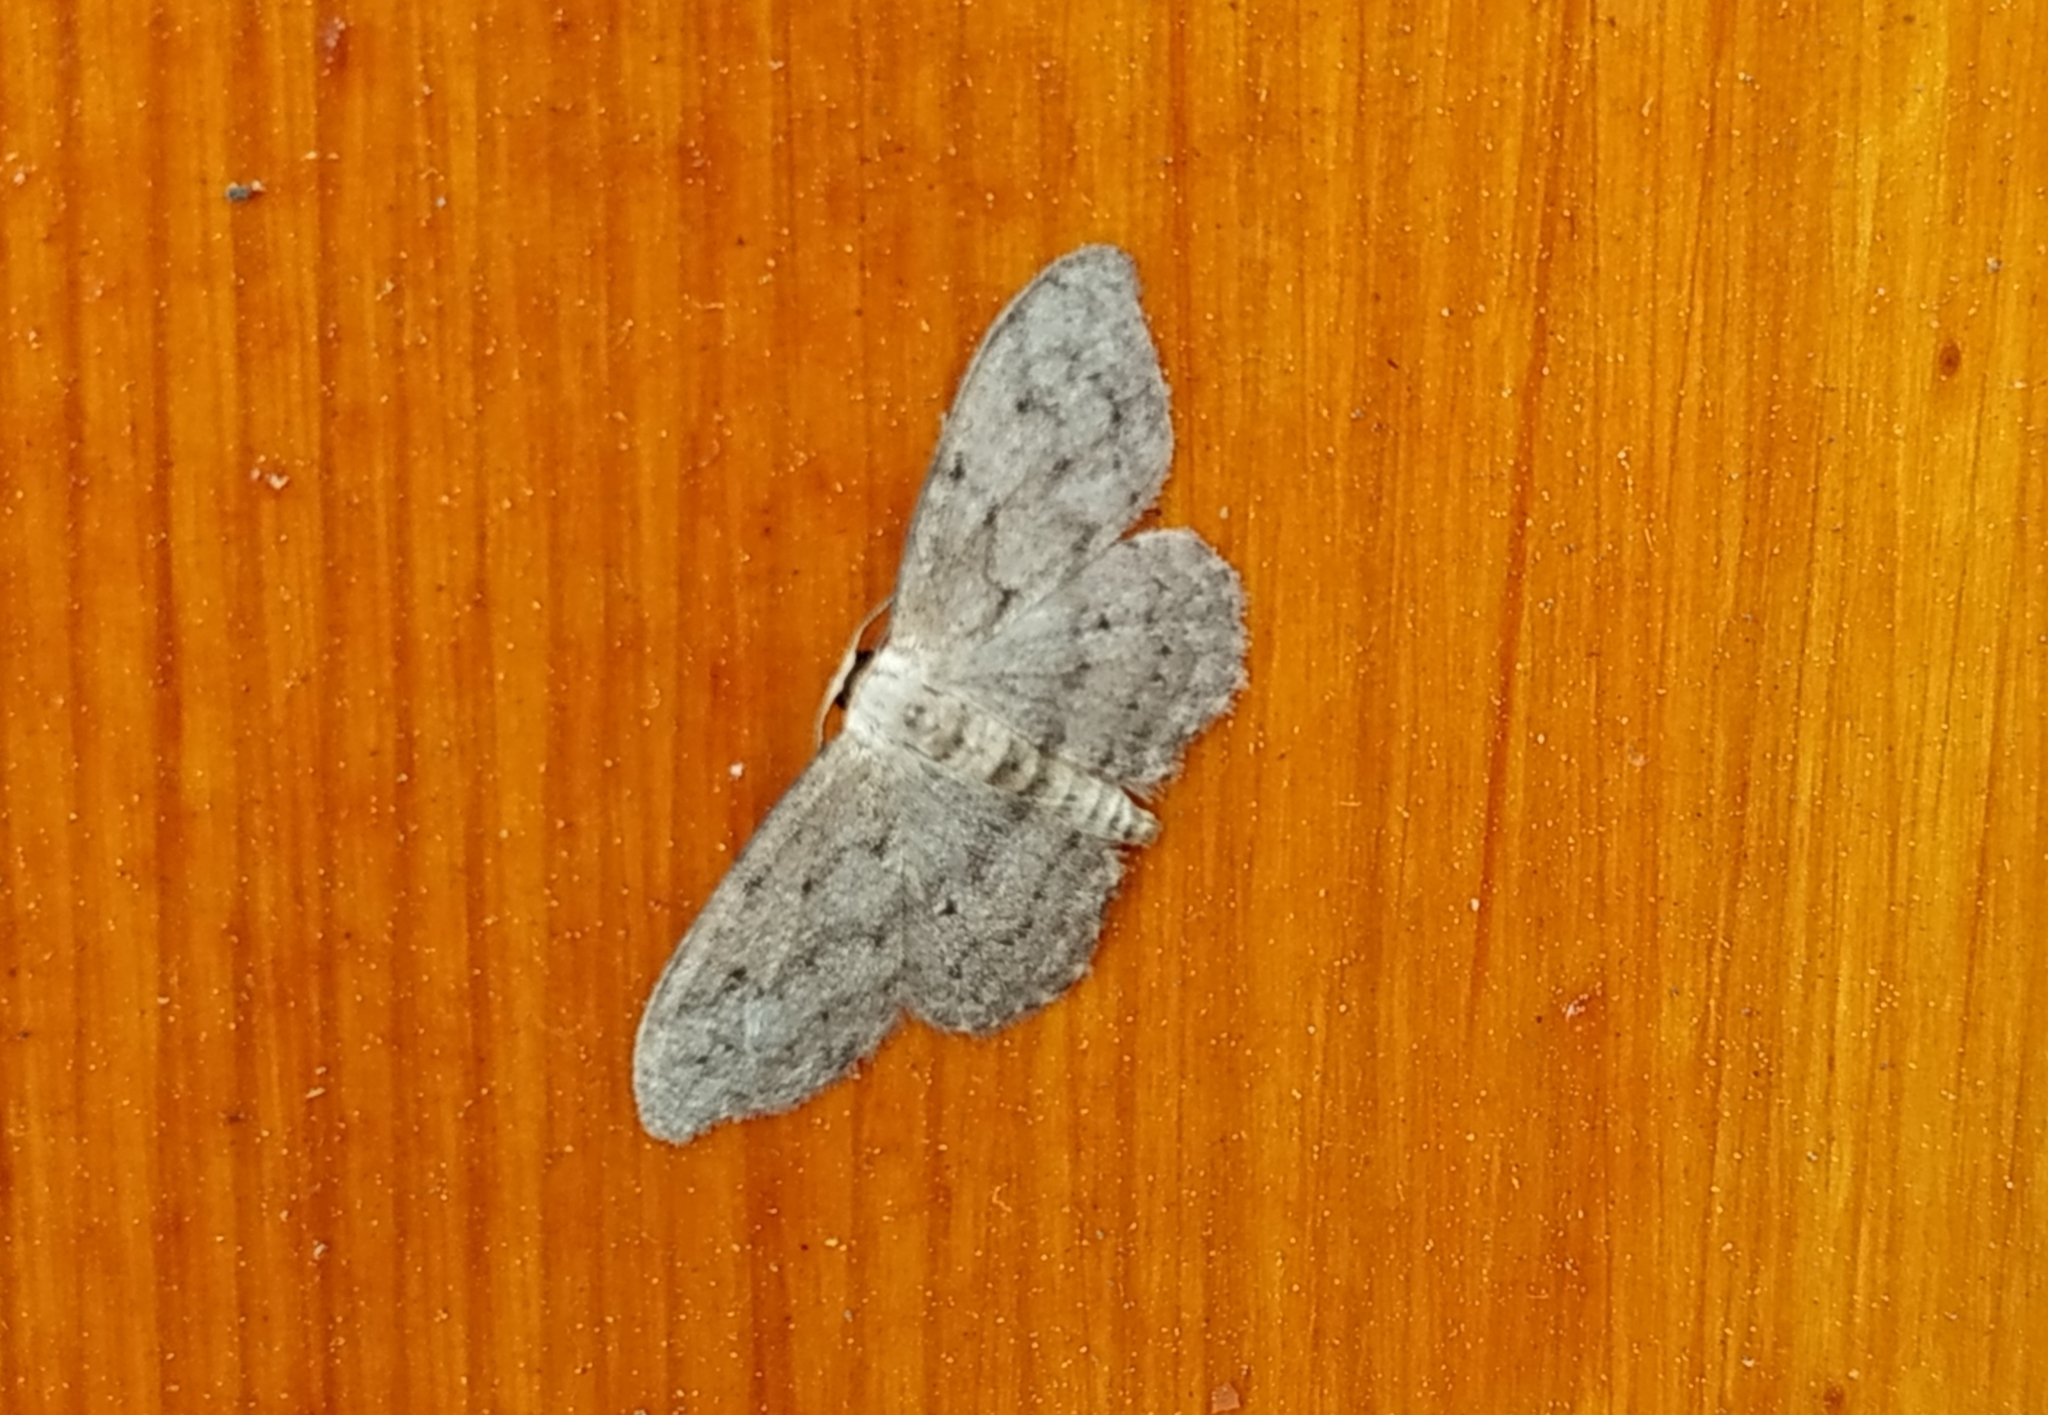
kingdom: Animalia
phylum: Arthropoda
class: Insecta
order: Lepidoptera
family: Geometridae
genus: Idaea
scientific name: Idaea seriata
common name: Small dusty wave
